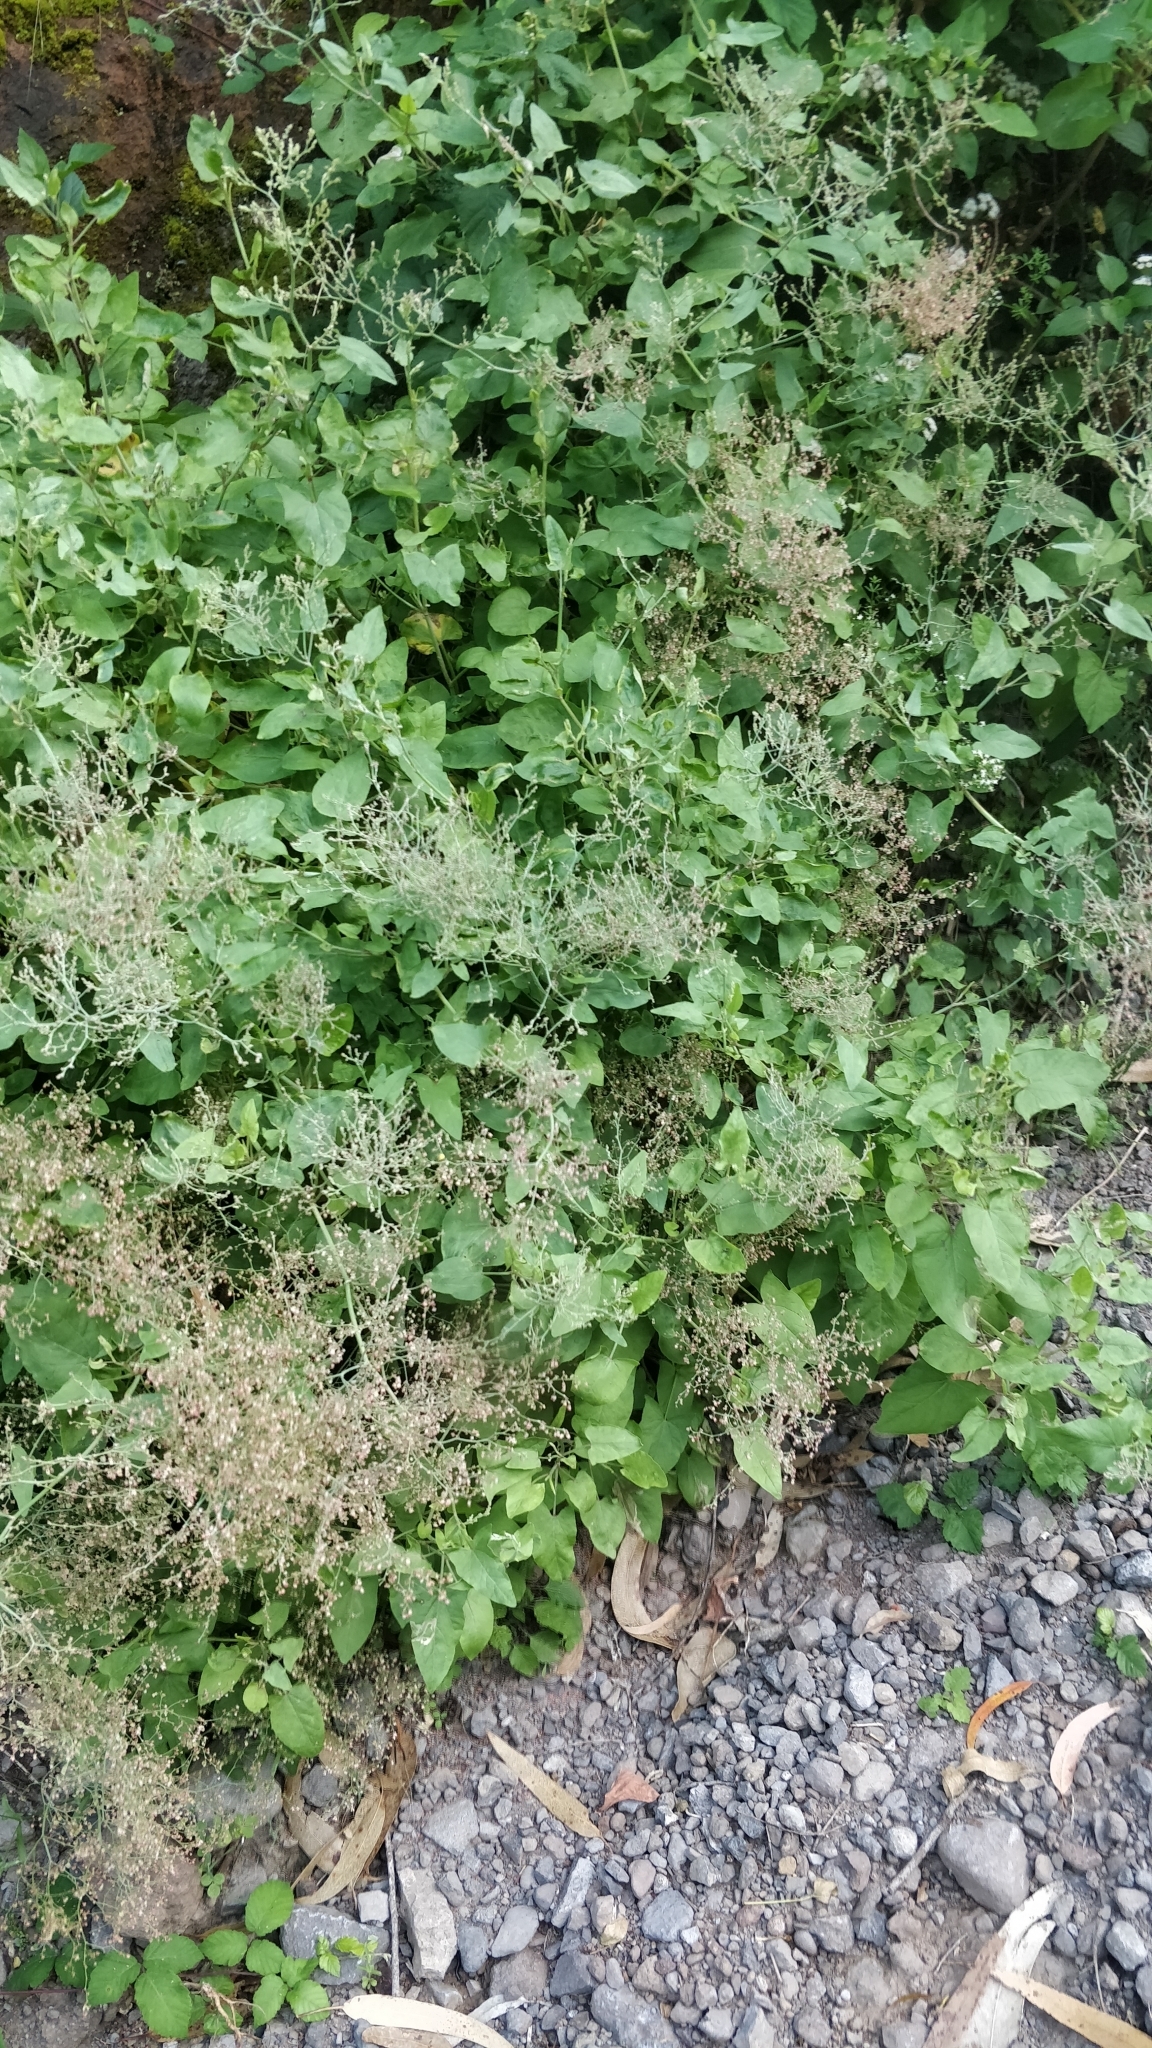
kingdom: Plantae
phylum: Tracheophyta
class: Magnoliopsida
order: Caryophyllales
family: Polygonaceae
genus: Rumex
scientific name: Rumex maderensis
